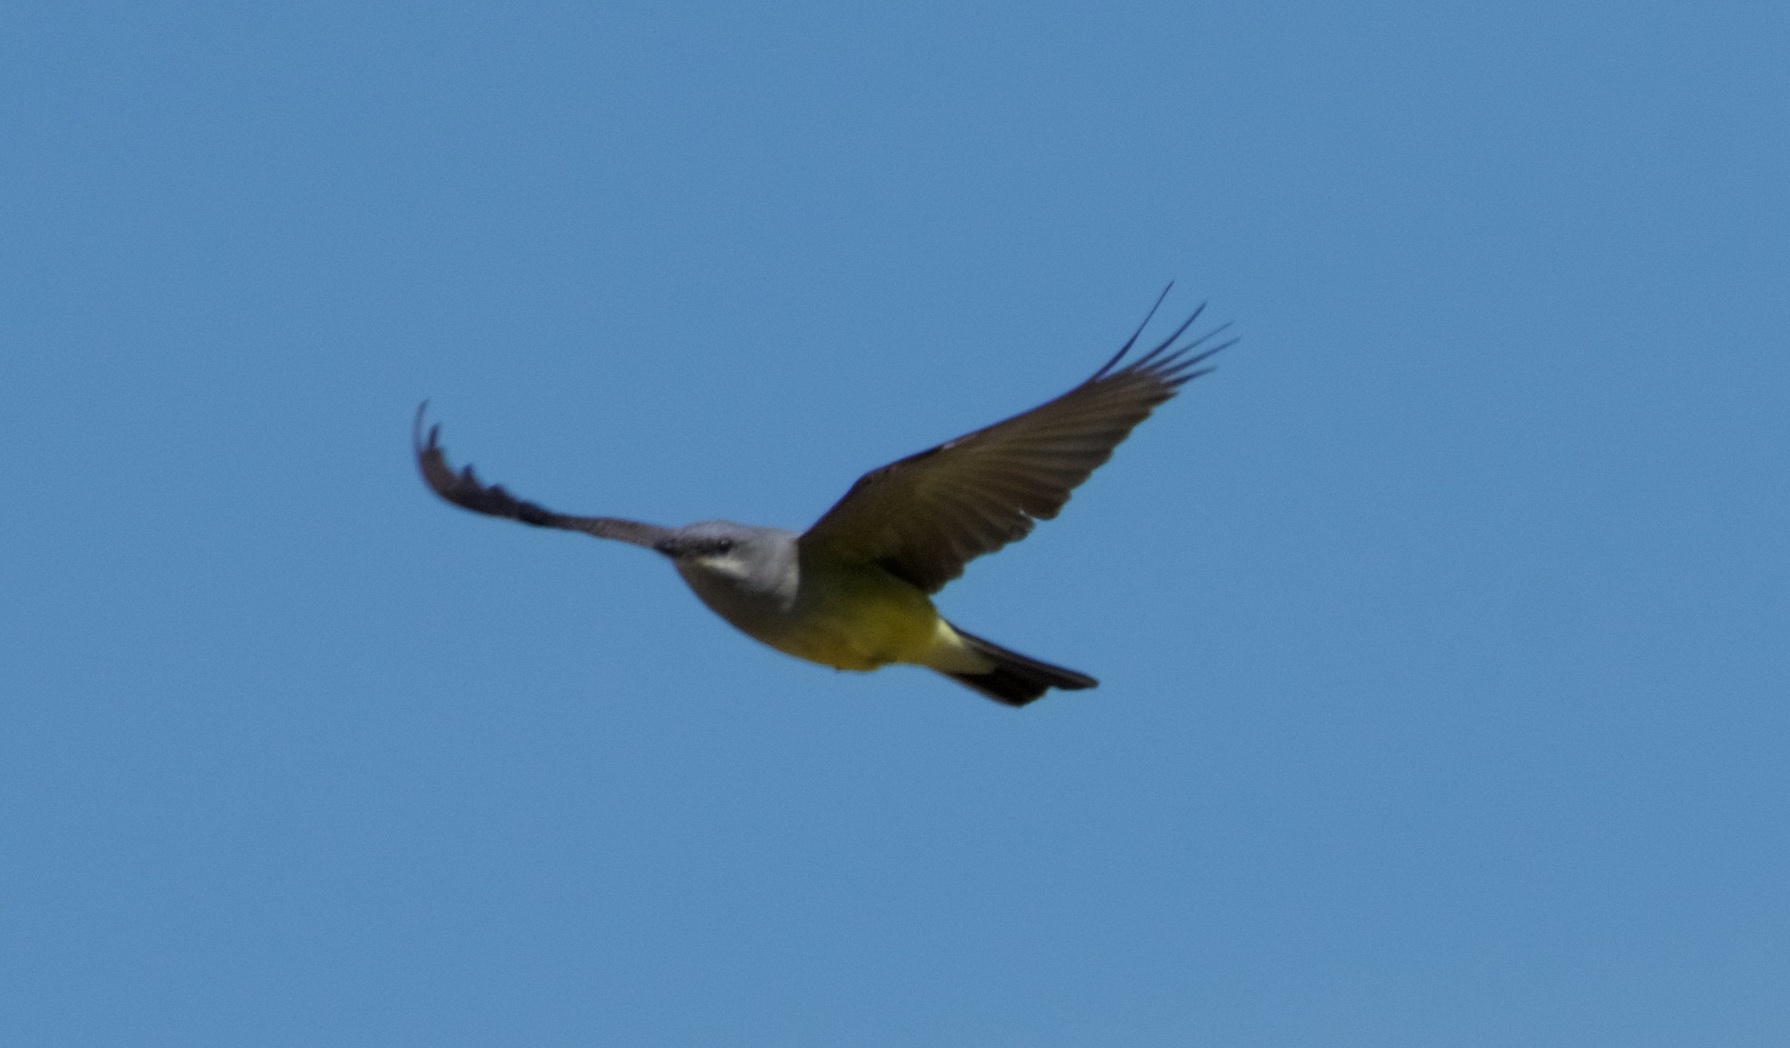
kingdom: Animalia
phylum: Chordata
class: Aves
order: Passeriformes
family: Tyrannidae
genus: Tyrannus
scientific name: Tyrannus verticalis
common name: Western kingbird
